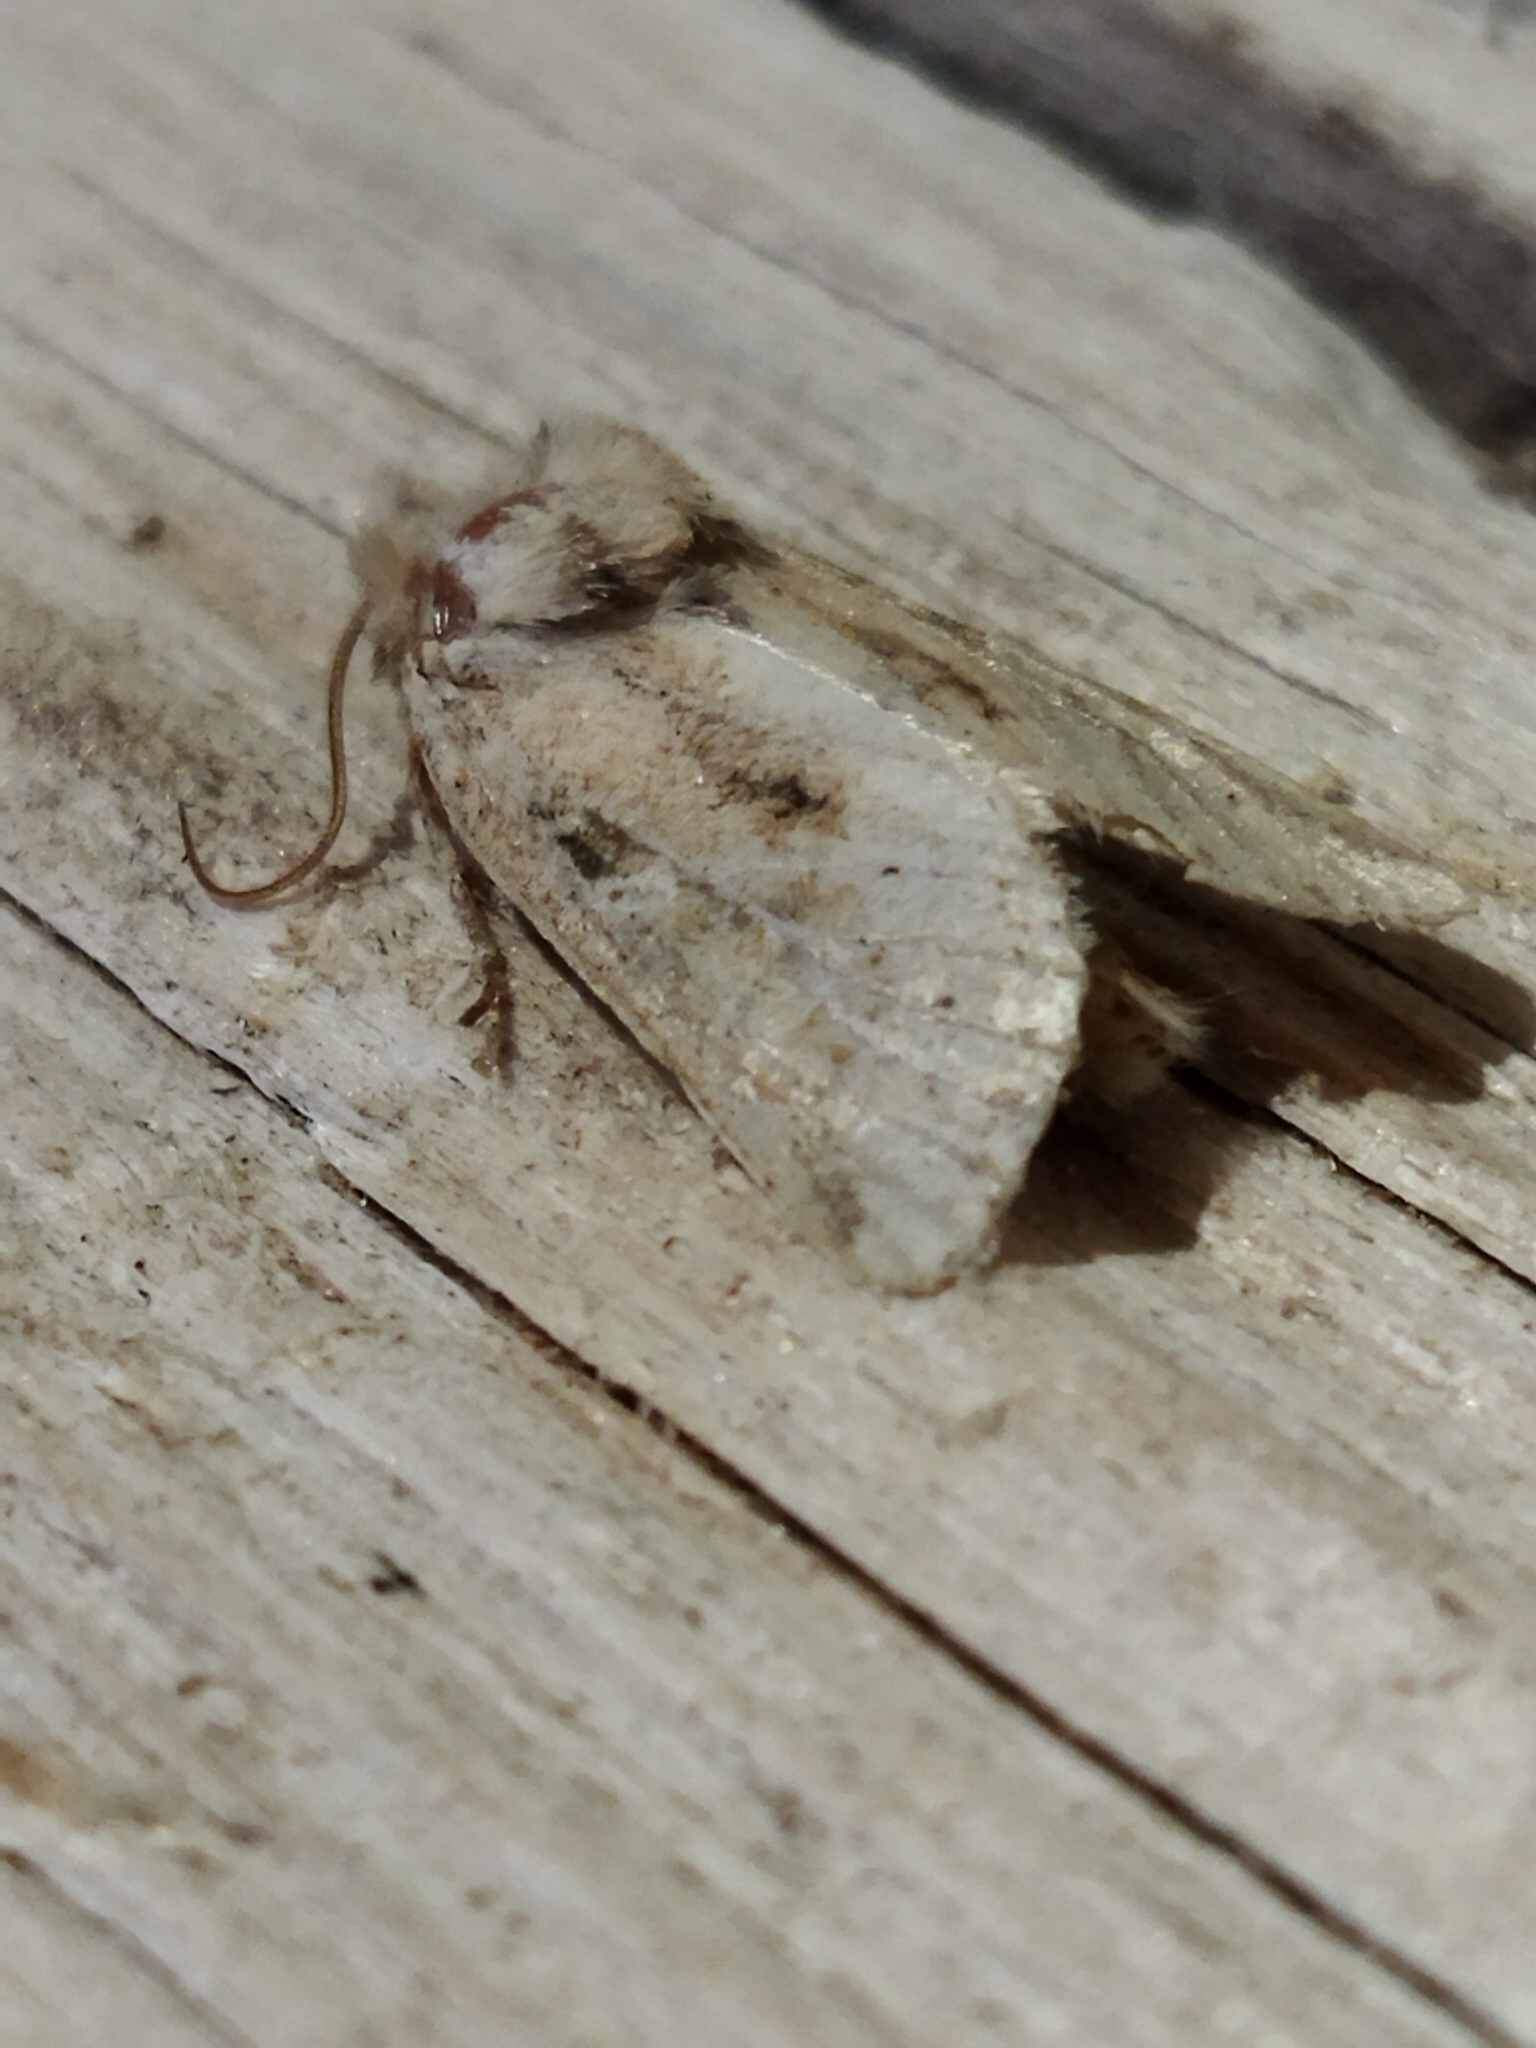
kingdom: Animalia
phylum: Arthropoda
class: Insecta
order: Lepidoptera
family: Noctuidae
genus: Luperina
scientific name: Luperina dumerilii
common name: Dumeril's rustic
